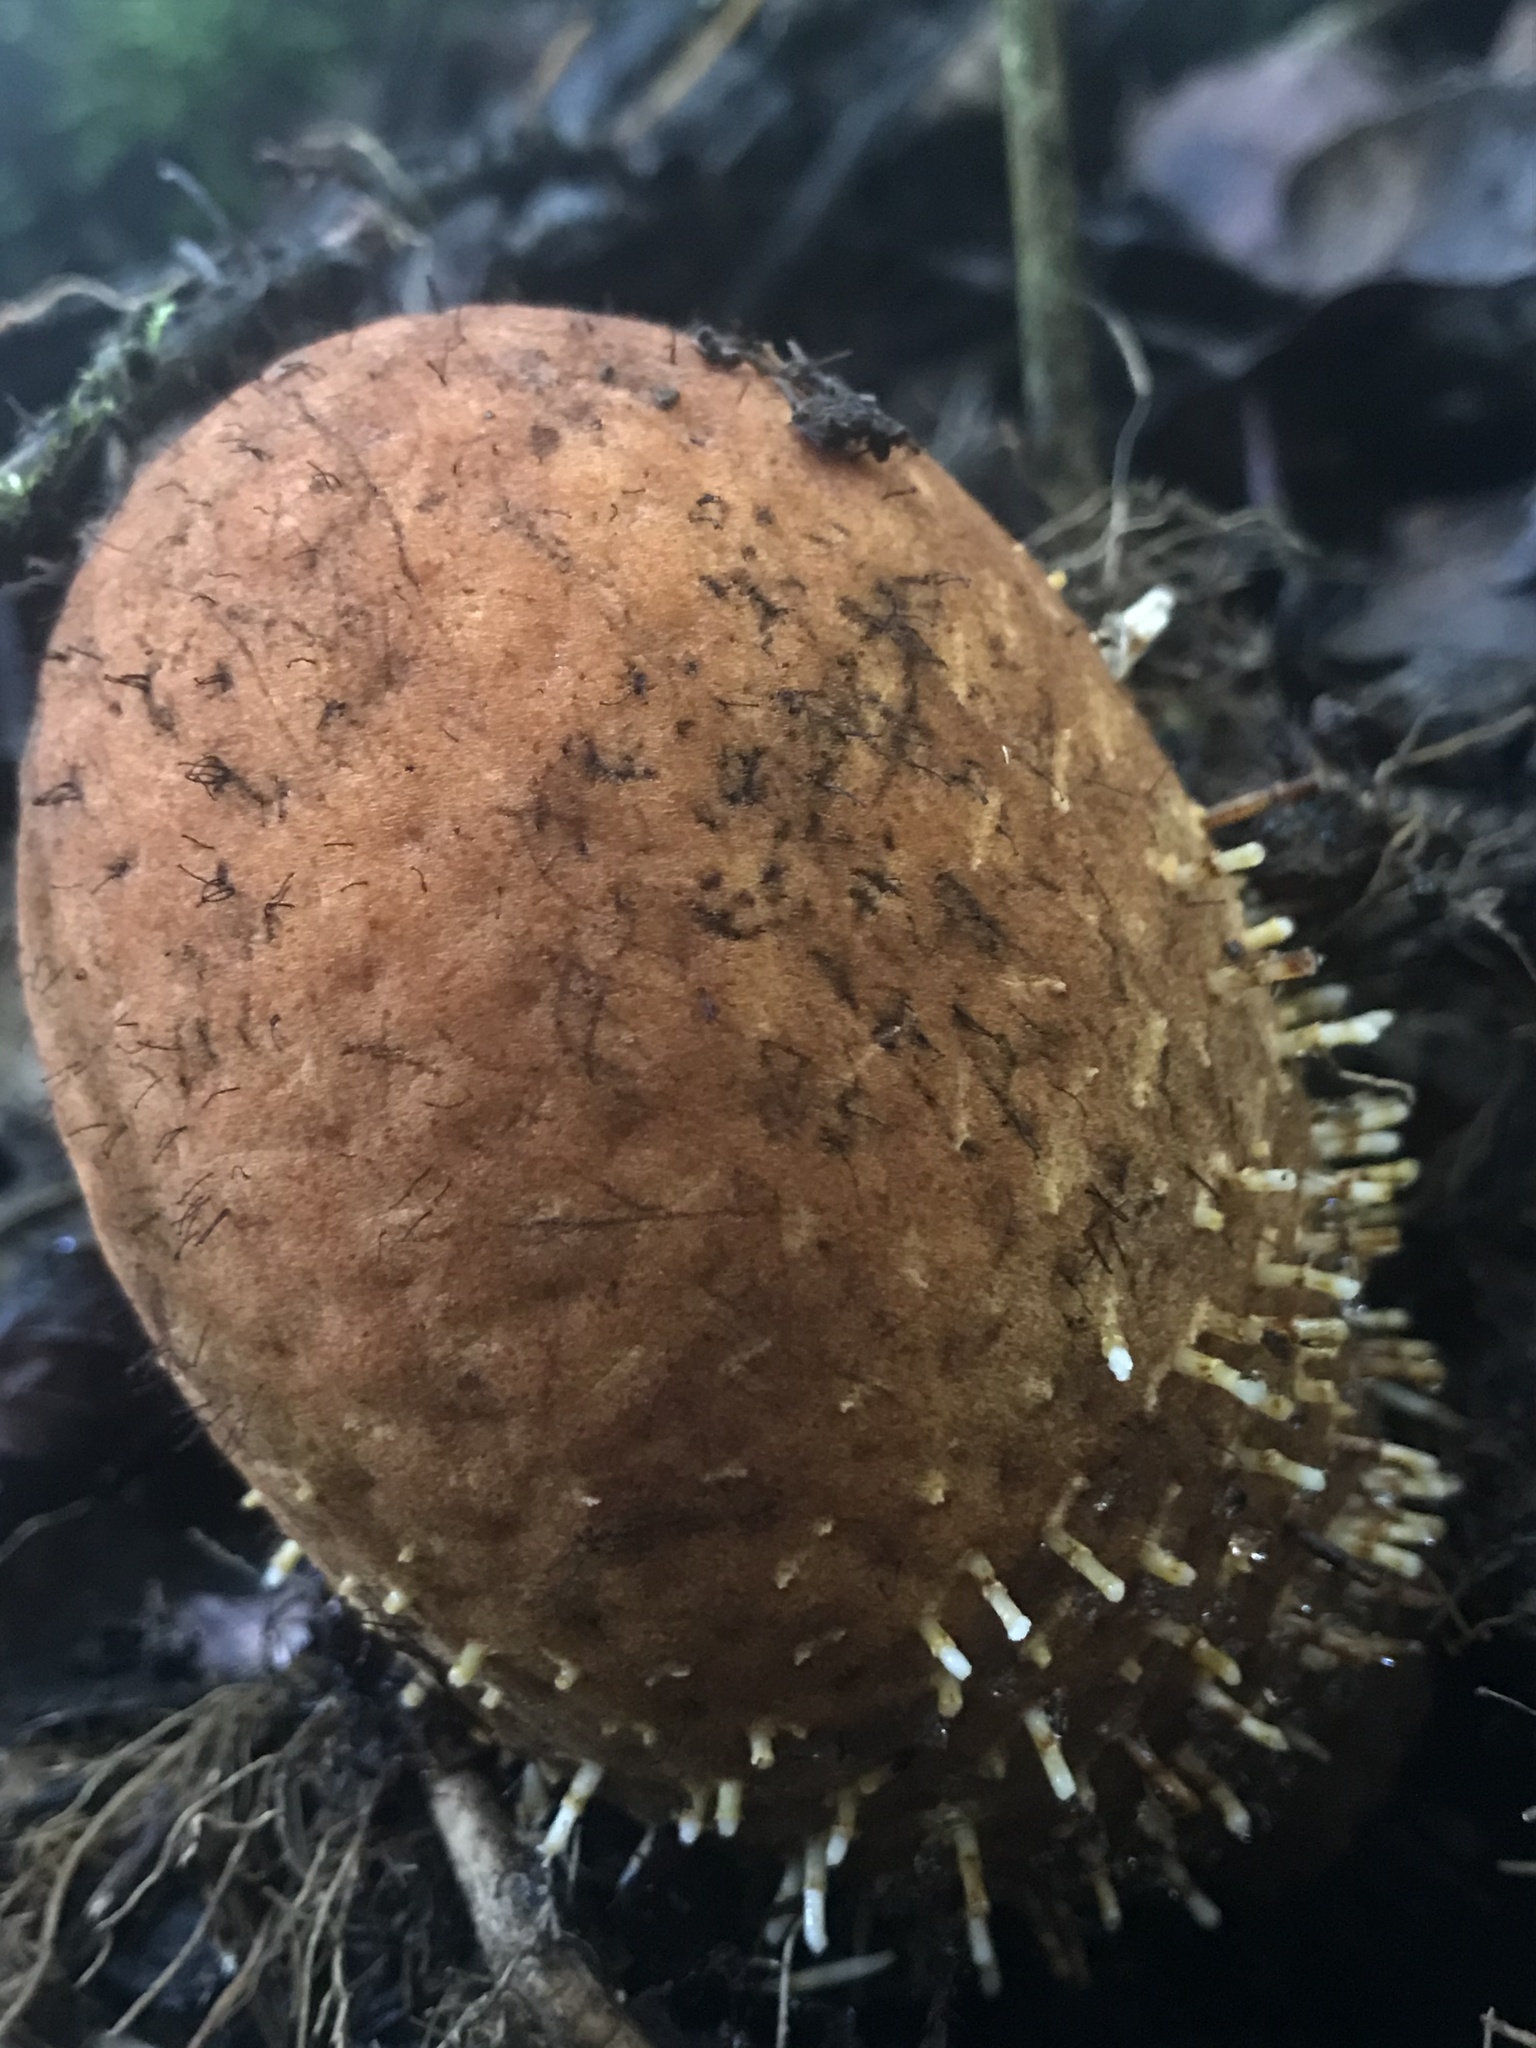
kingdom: Plantae
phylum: Tracheophyta
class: Magnoliopsida
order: Santalales
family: Balanophoraceae
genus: Corynaea
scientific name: Corynaea crassa
